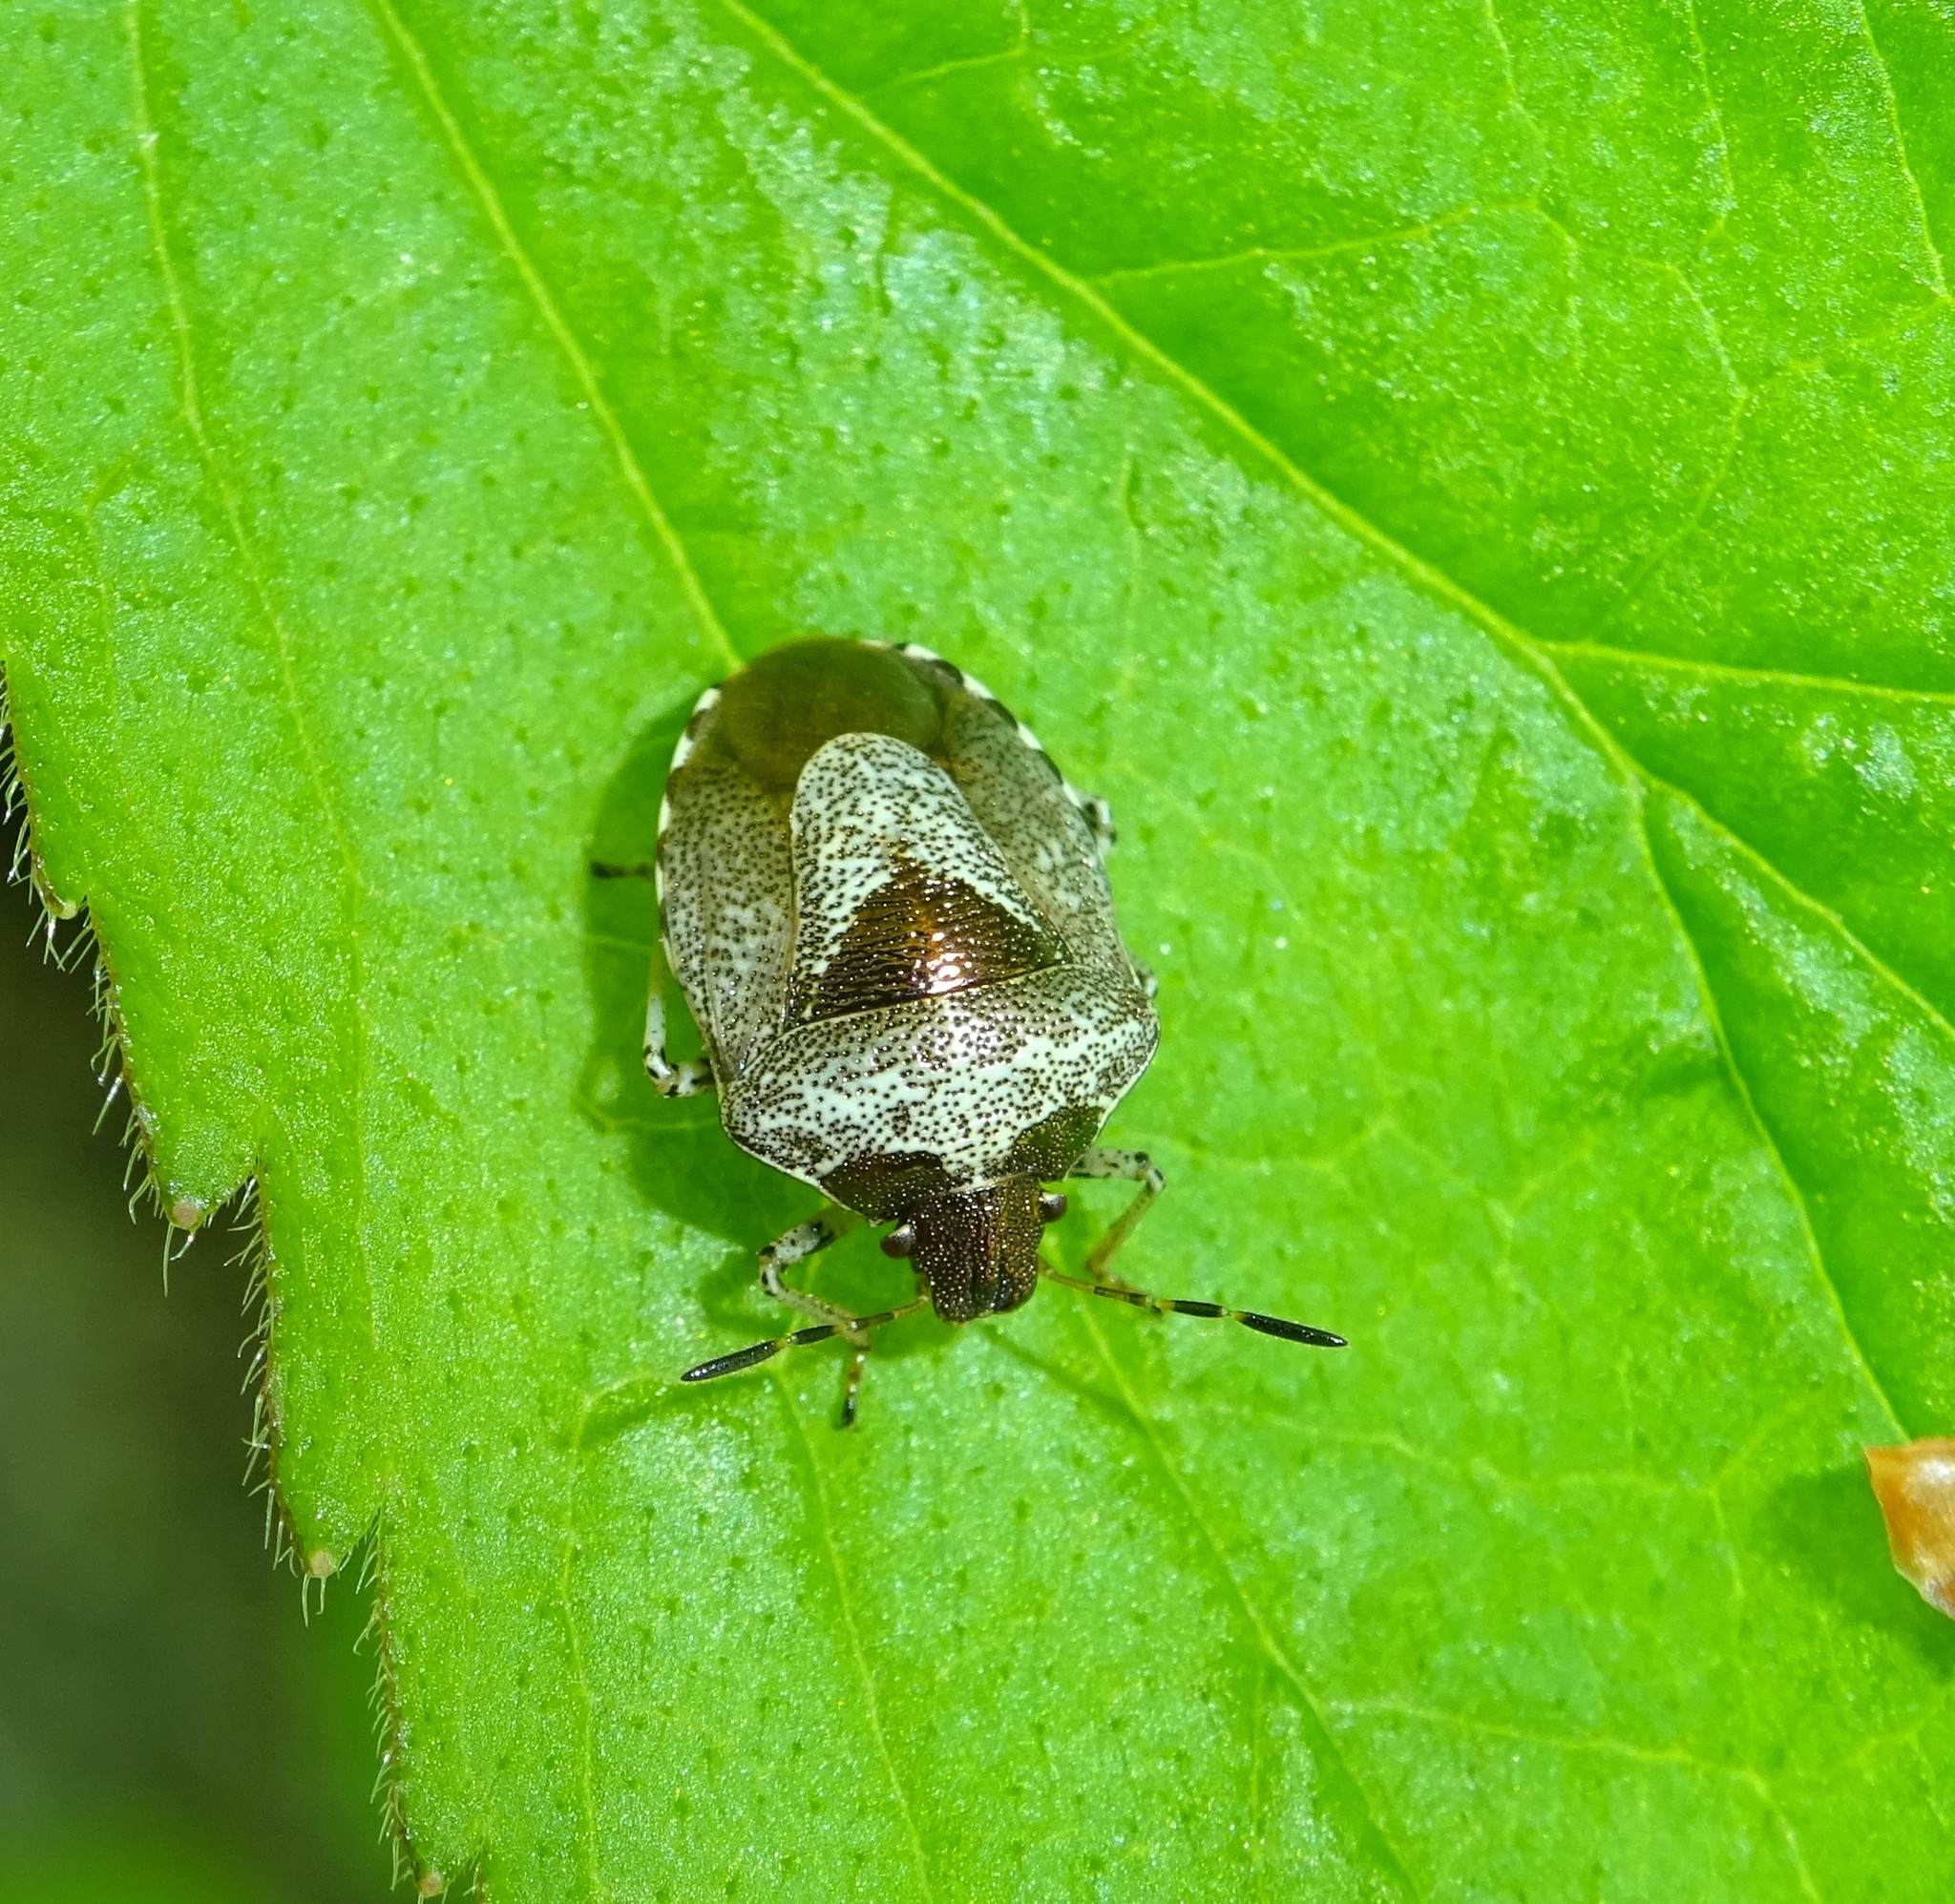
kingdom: Animalia
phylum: Arthropoda
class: Insecta
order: Hemiptera
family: Pentatomidae
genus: Eysarcoris
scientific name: Eysarcoris venustissimus
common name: Woundwort shieldbug
